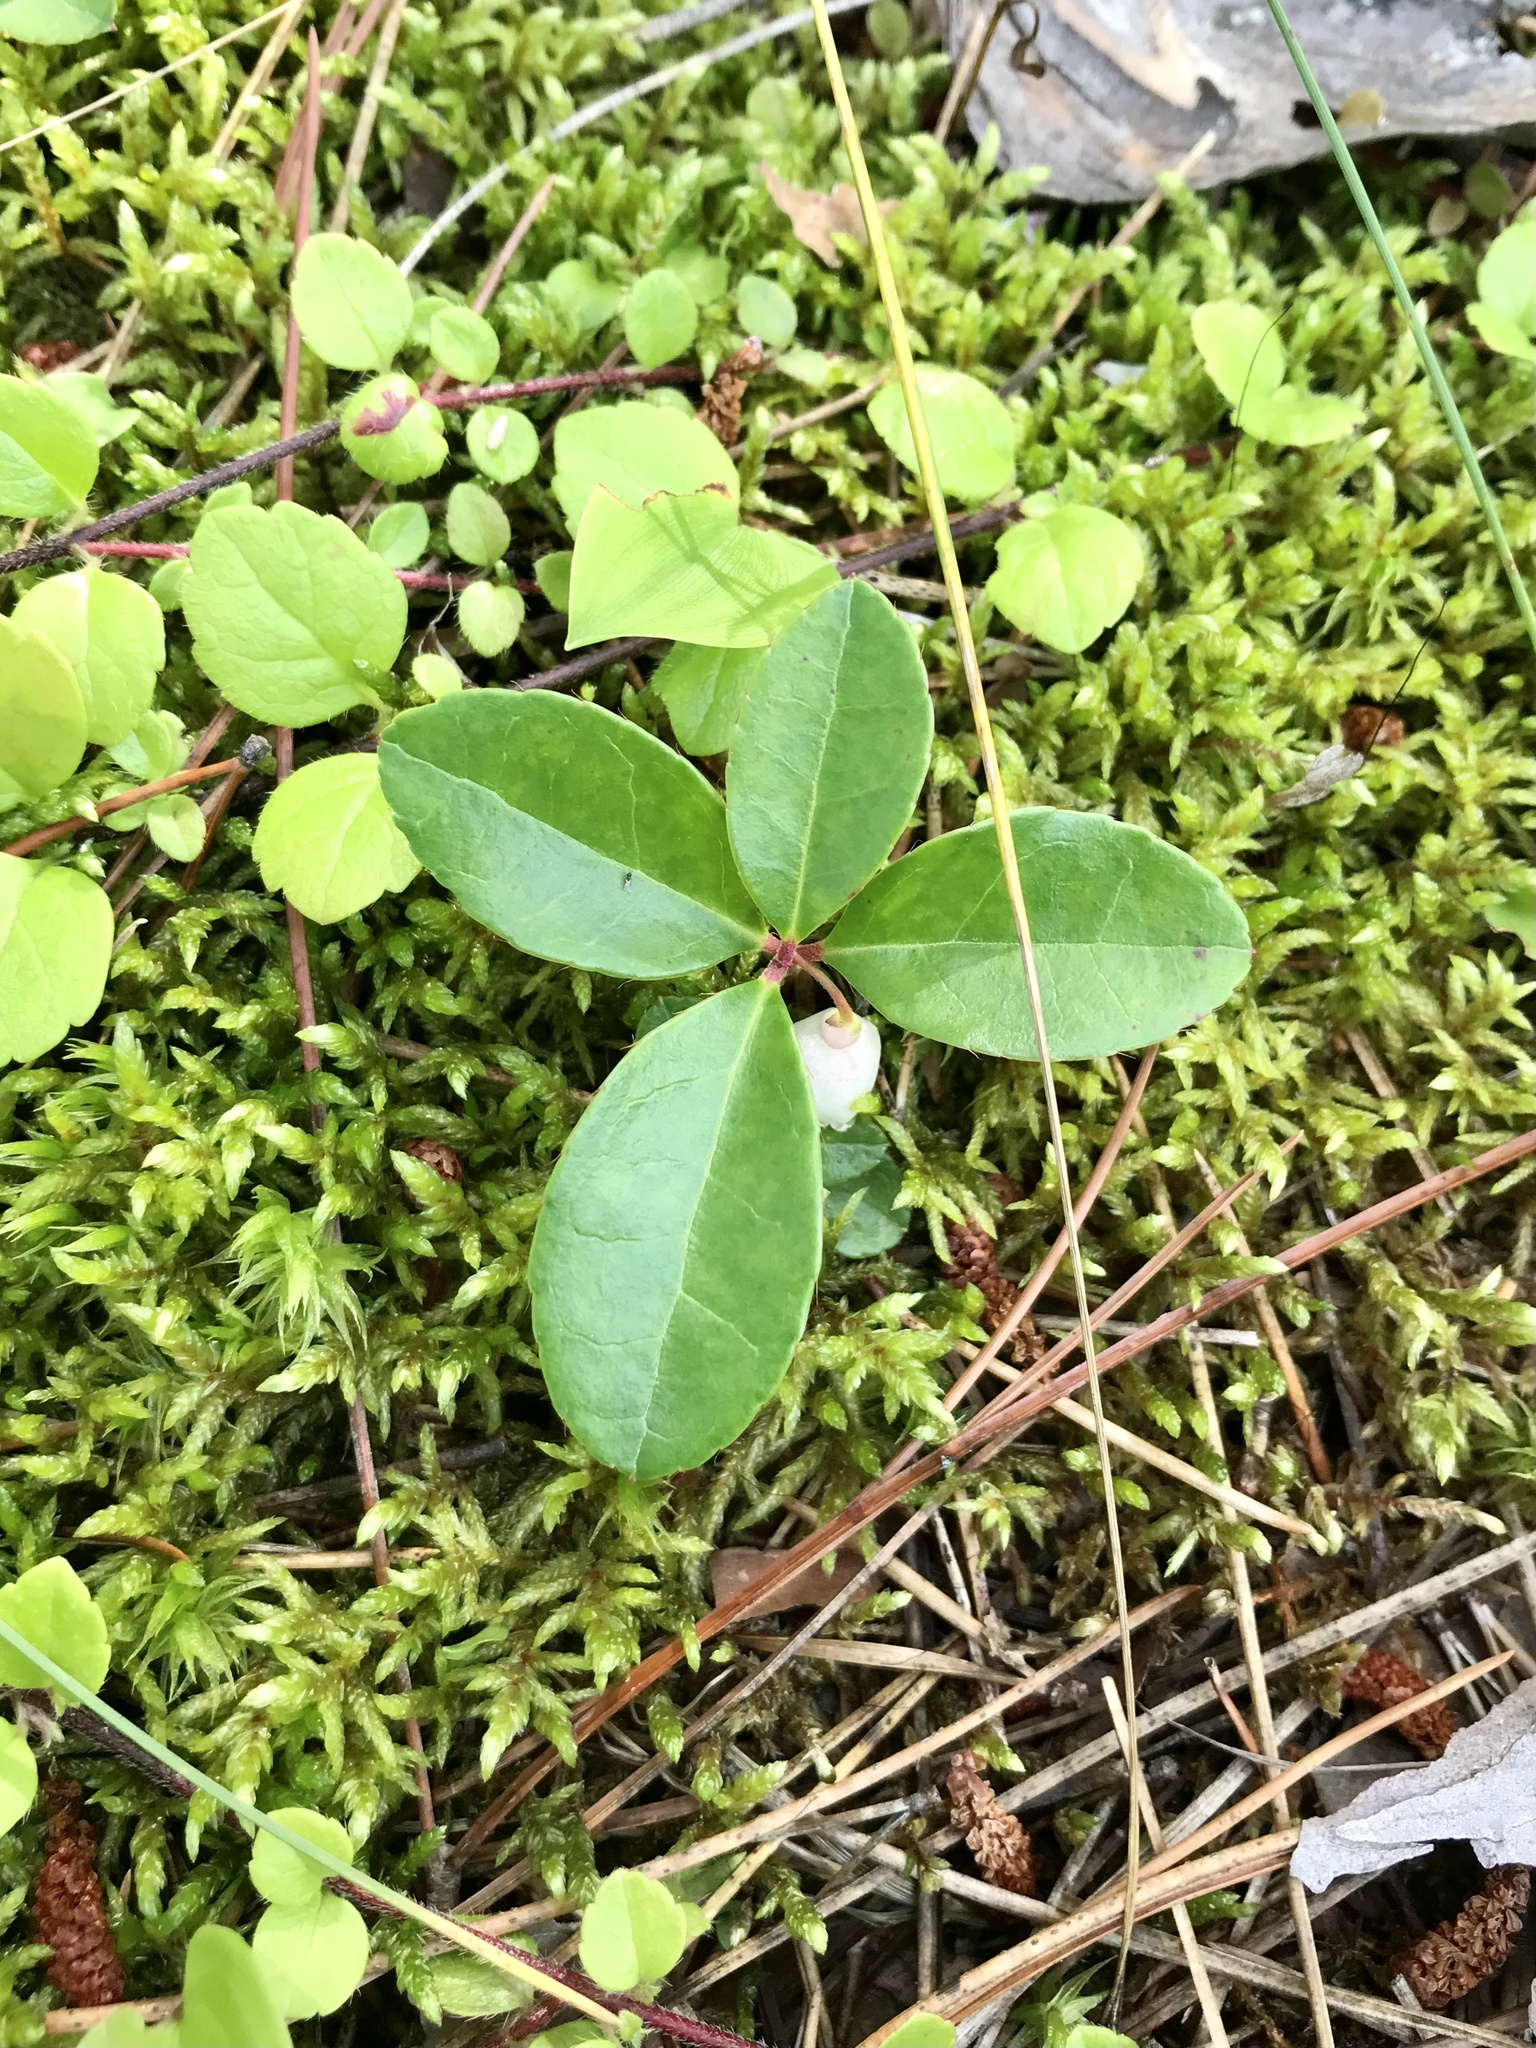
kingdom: Plantae
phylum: Tracheophyta
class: Magnoliopsida
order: Ericales
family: Ericaceae
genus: Gaultheria
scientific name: Gaultheria procumbens
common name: Checkerberry
